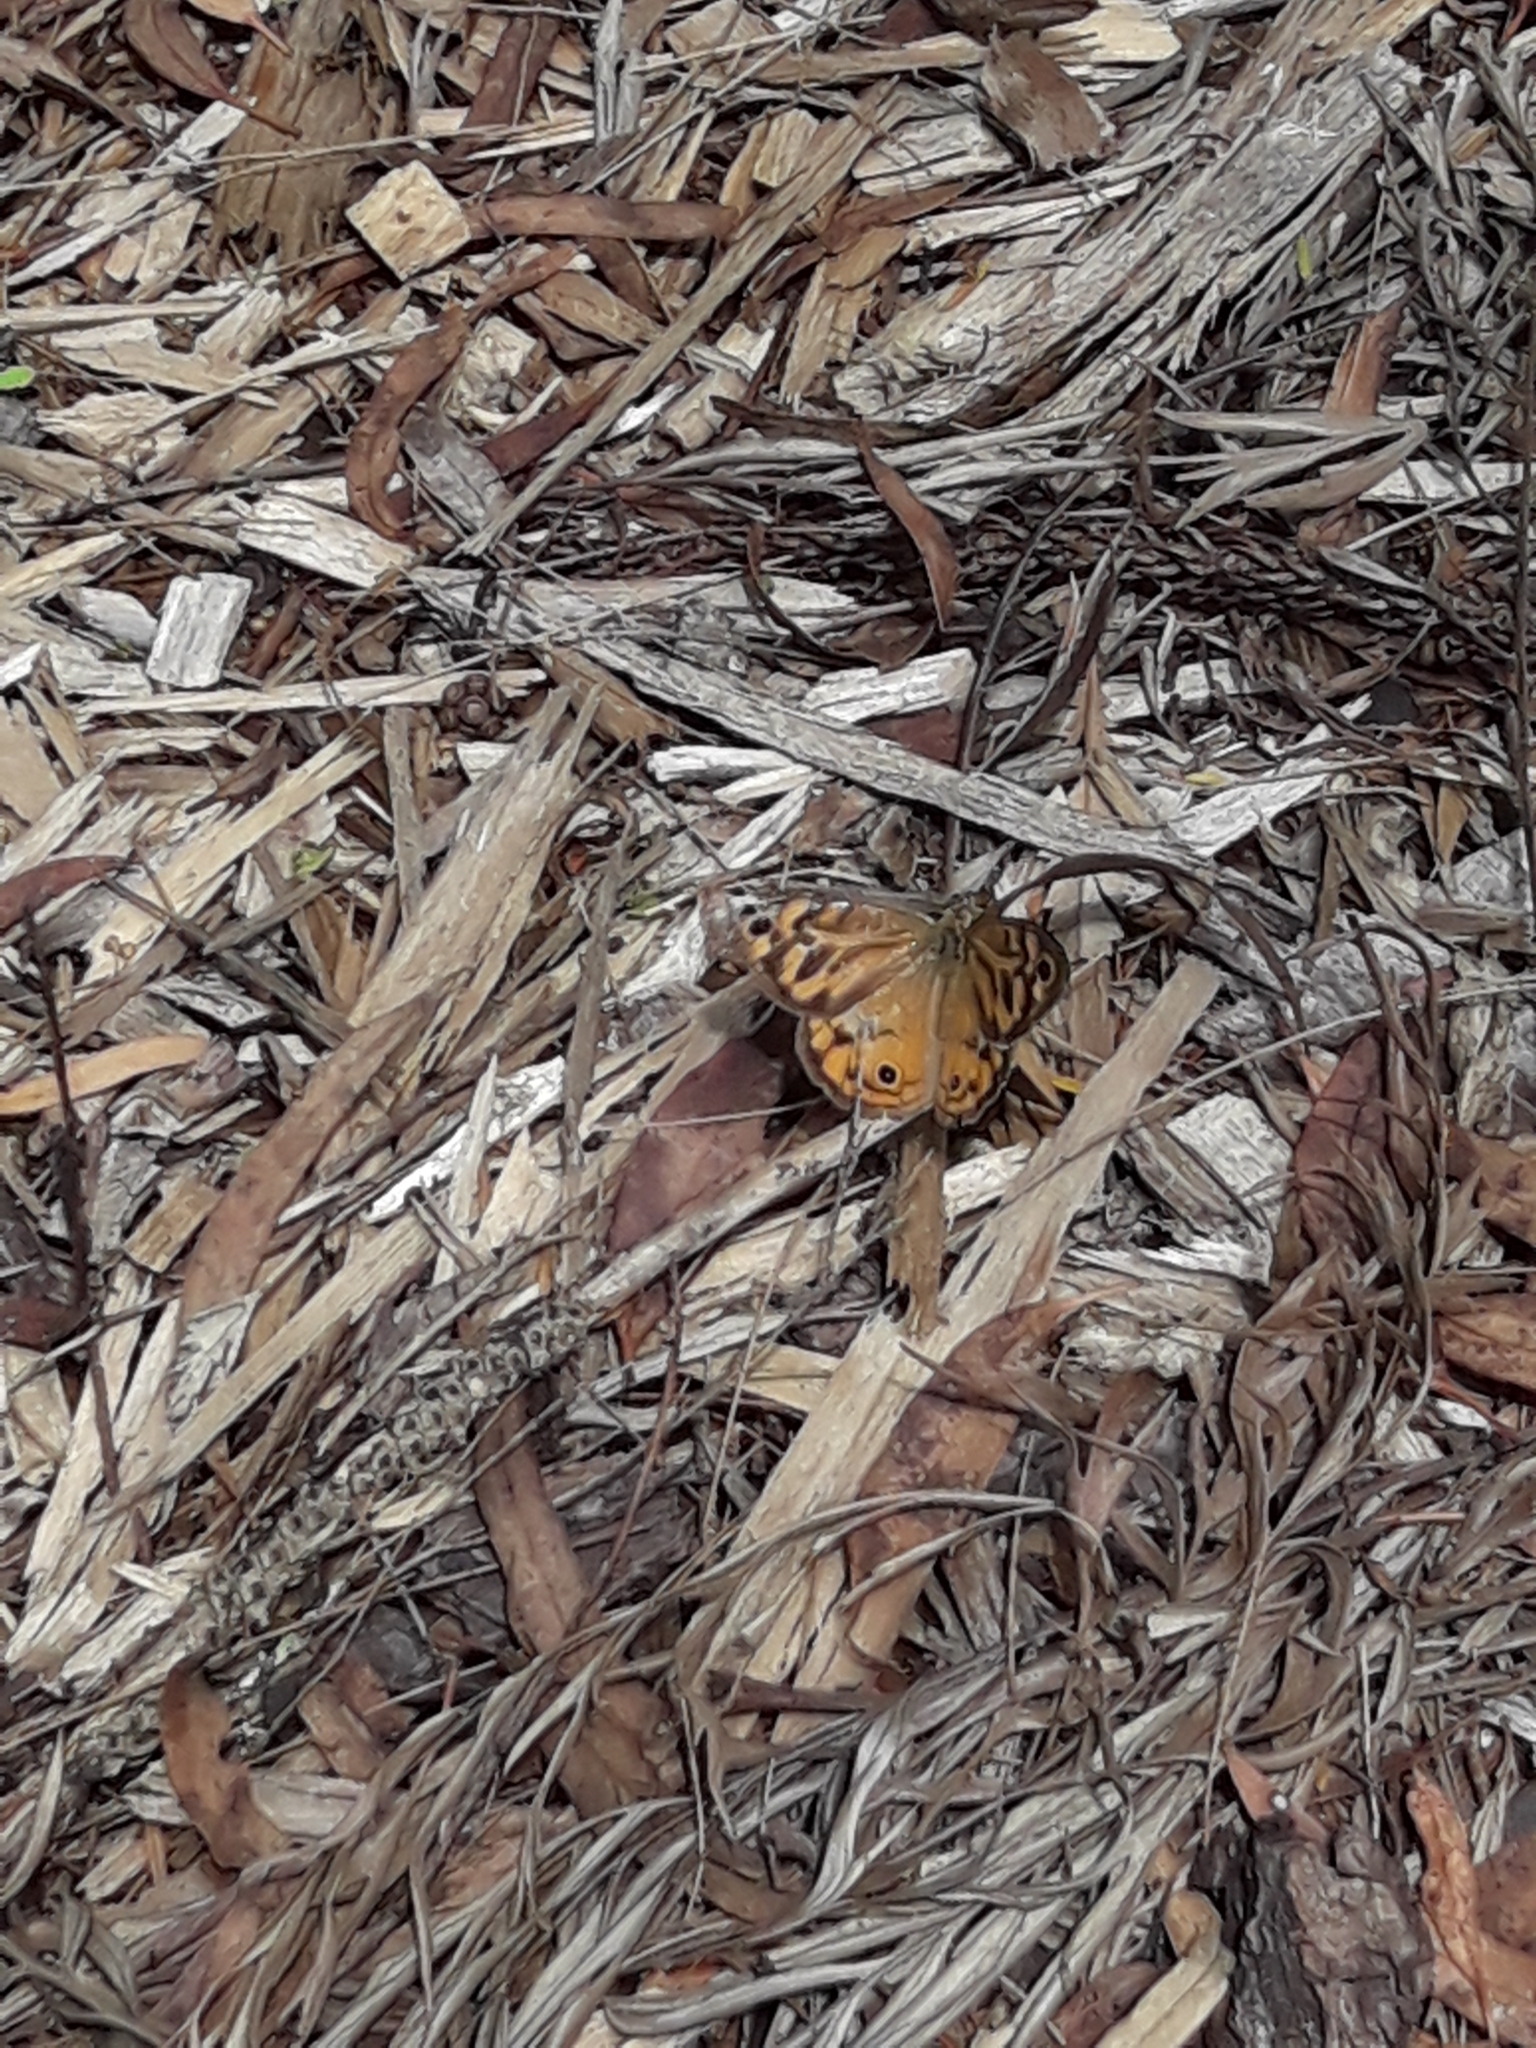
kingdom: Animalia
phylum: Arthropoda
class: Insecta
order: Lepidoptera
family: Nymphalidae
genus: Heteronympha
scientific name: Heteronympha merope
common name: Common brown
